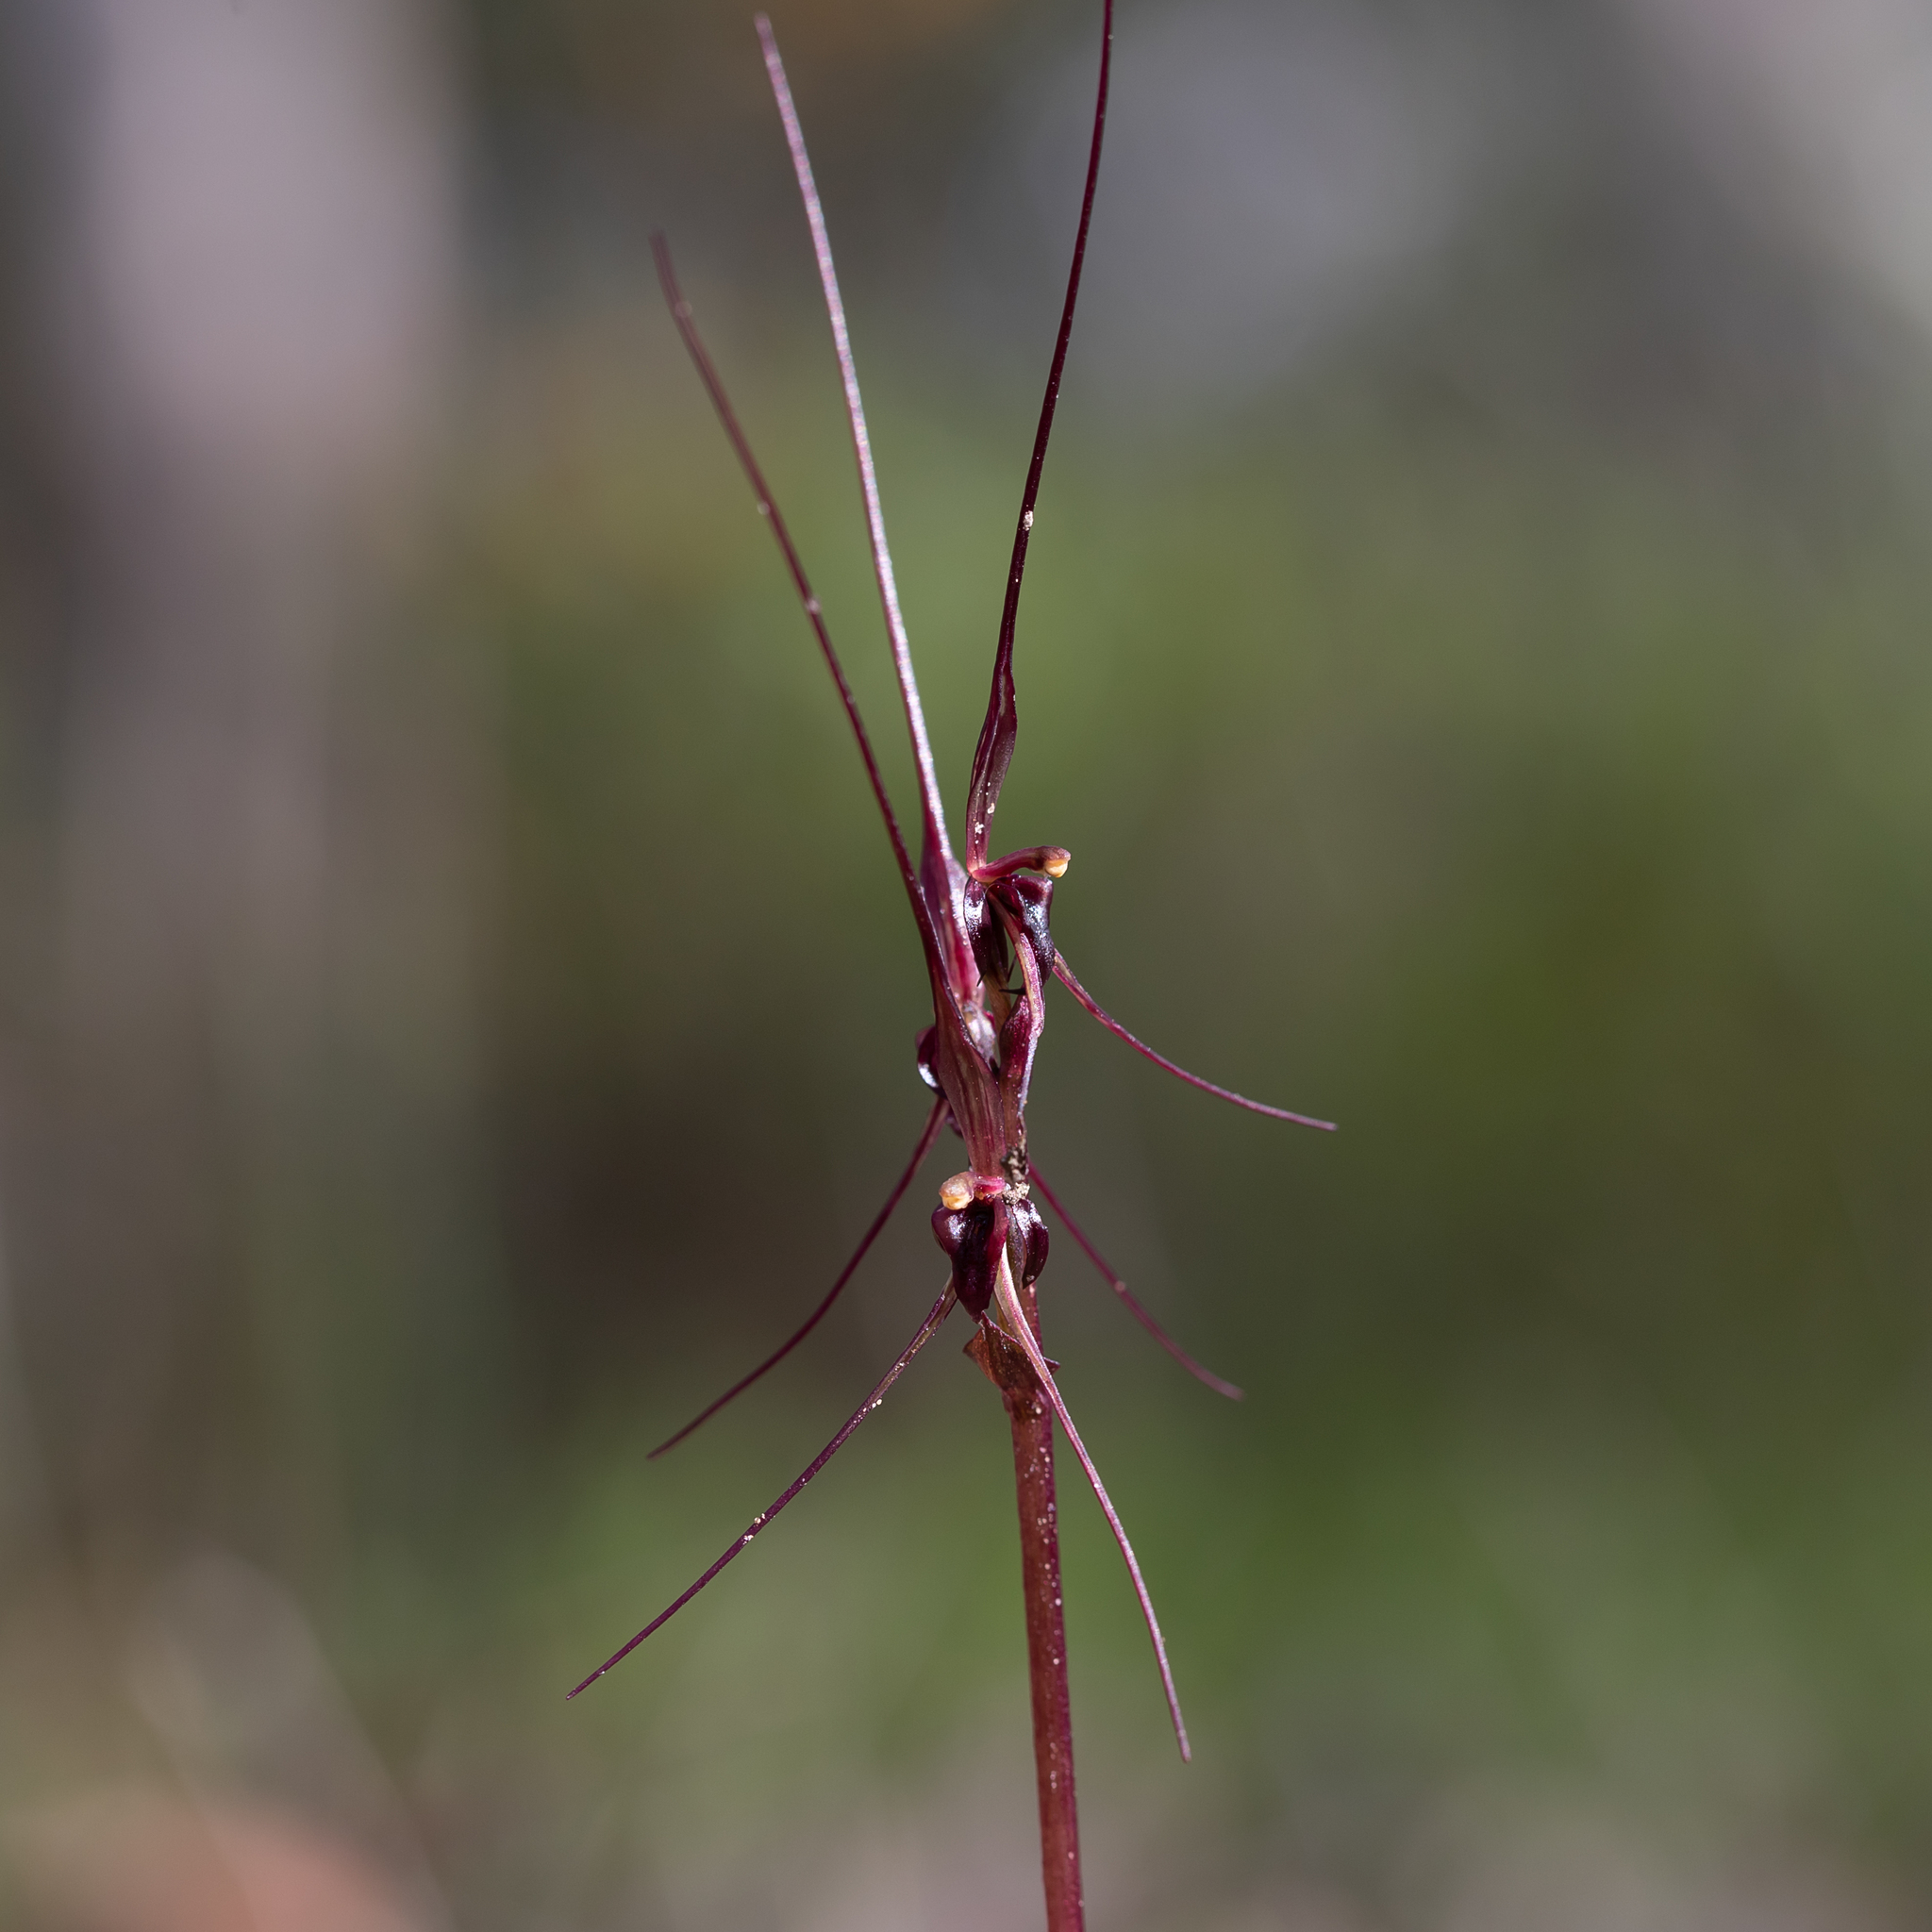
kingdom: Plantae
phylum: Tracheophyta
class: Liliopsida
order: Asparagales
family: Orchidaceae
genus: Acianthus
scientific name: Acianthus caudatus
